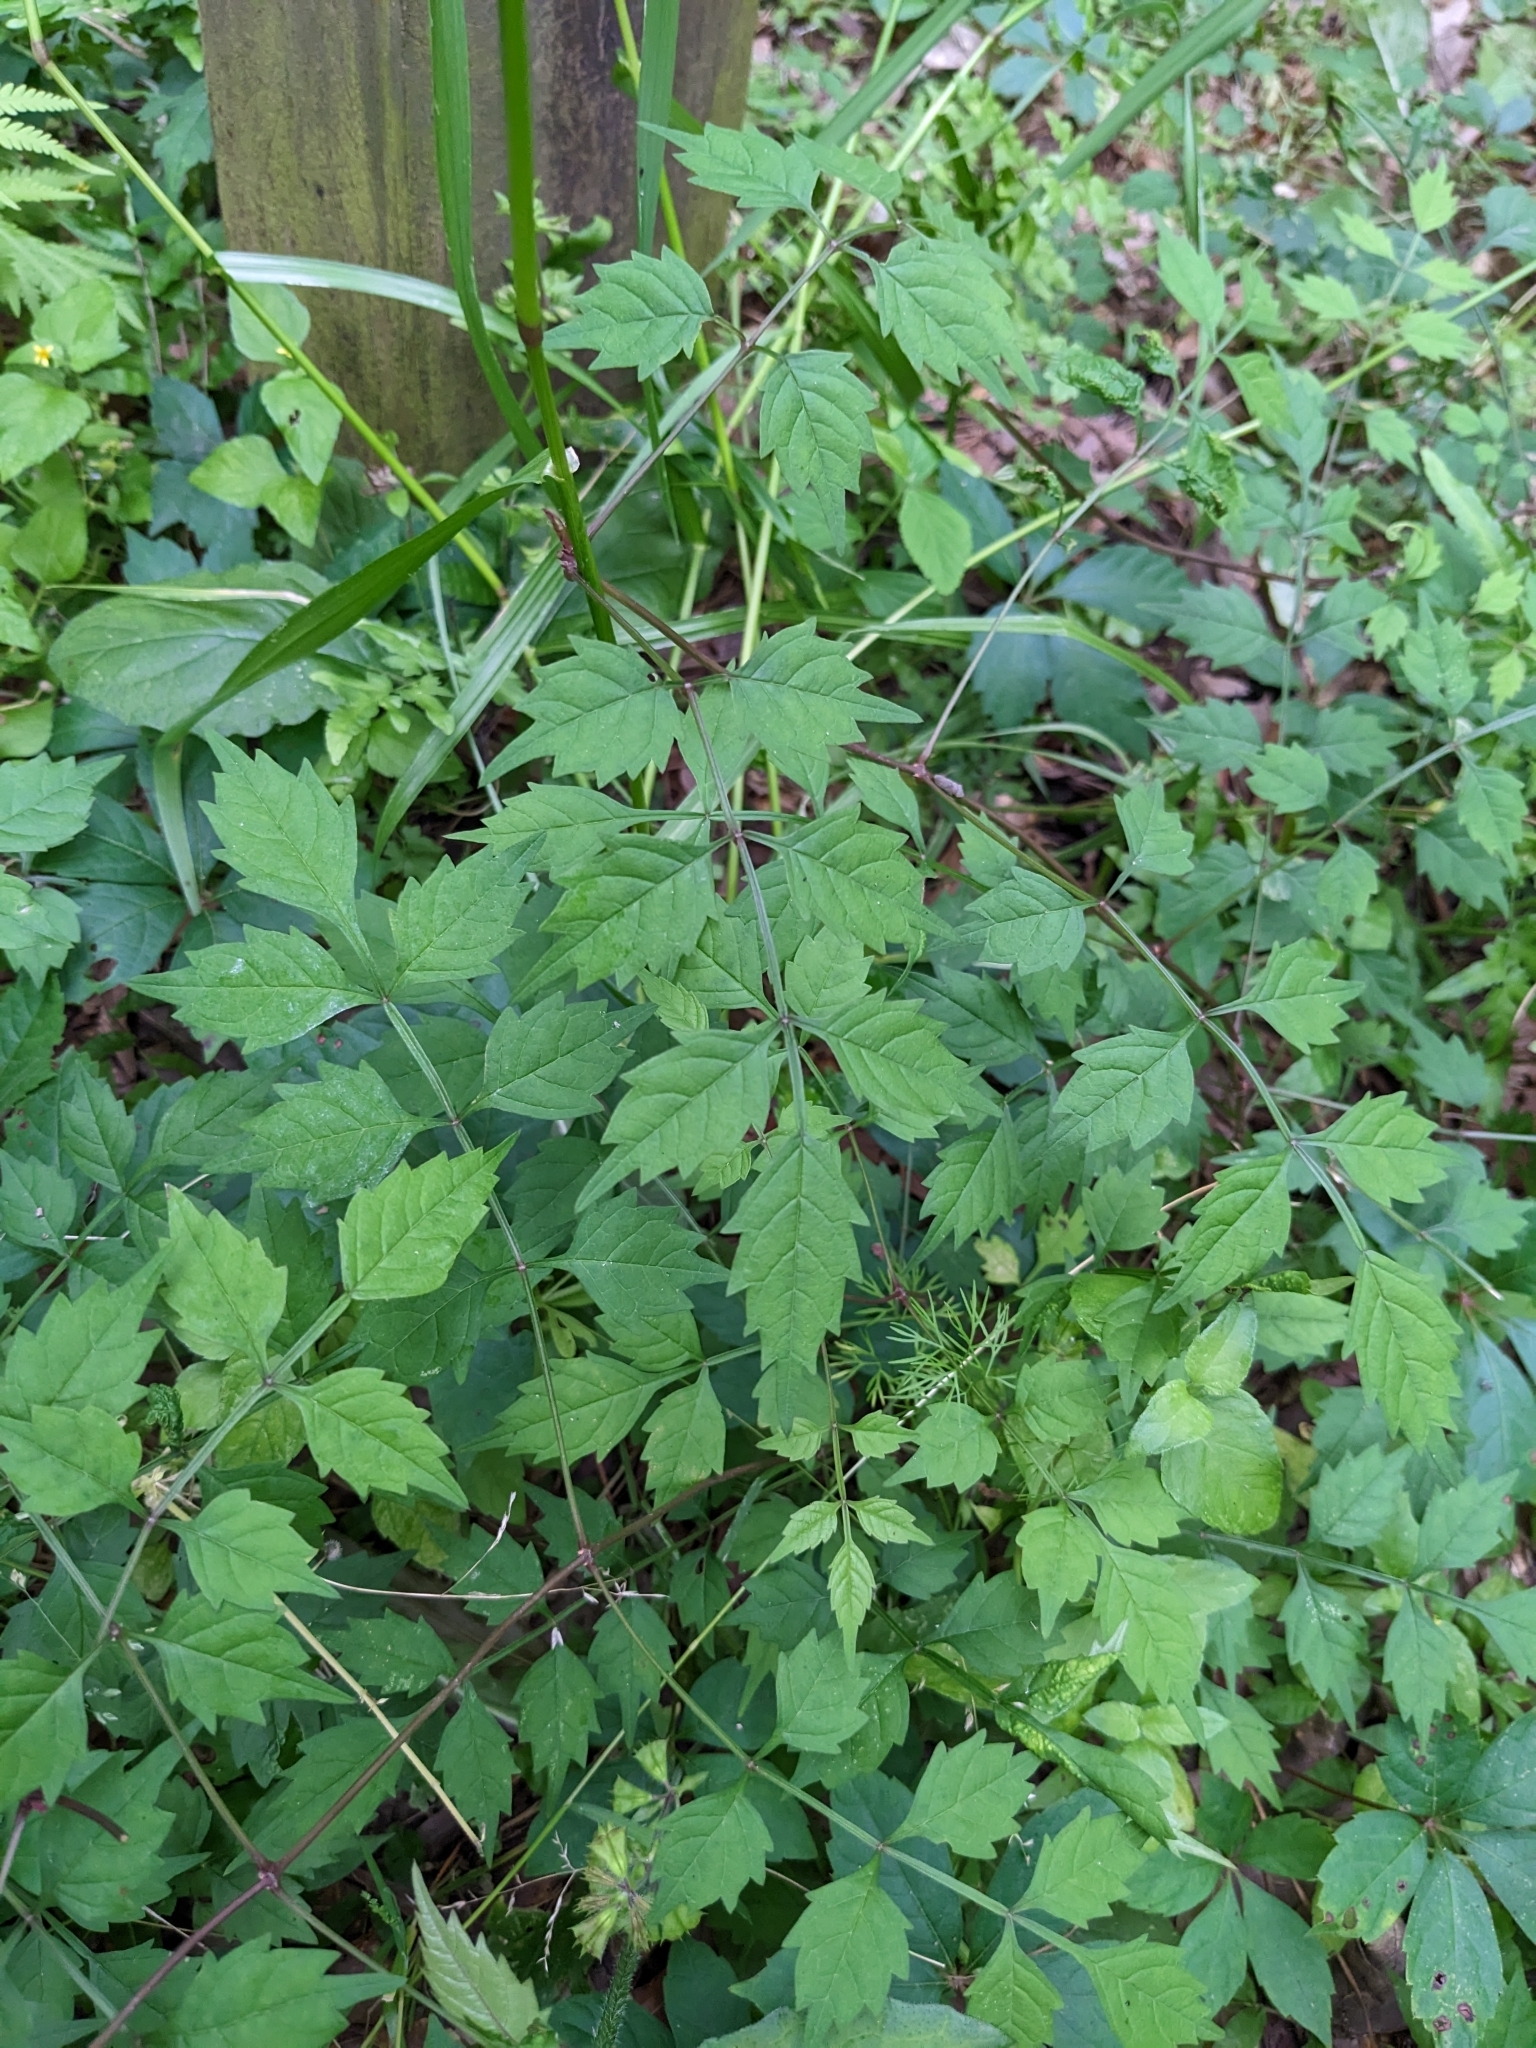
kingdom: Plantae
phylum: Tracheophyta
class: Magnoliopsida
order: Lamiales
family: Bignoniaceae
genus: Campsis
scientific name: Campsis radicans
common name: Trumpet-creeper
